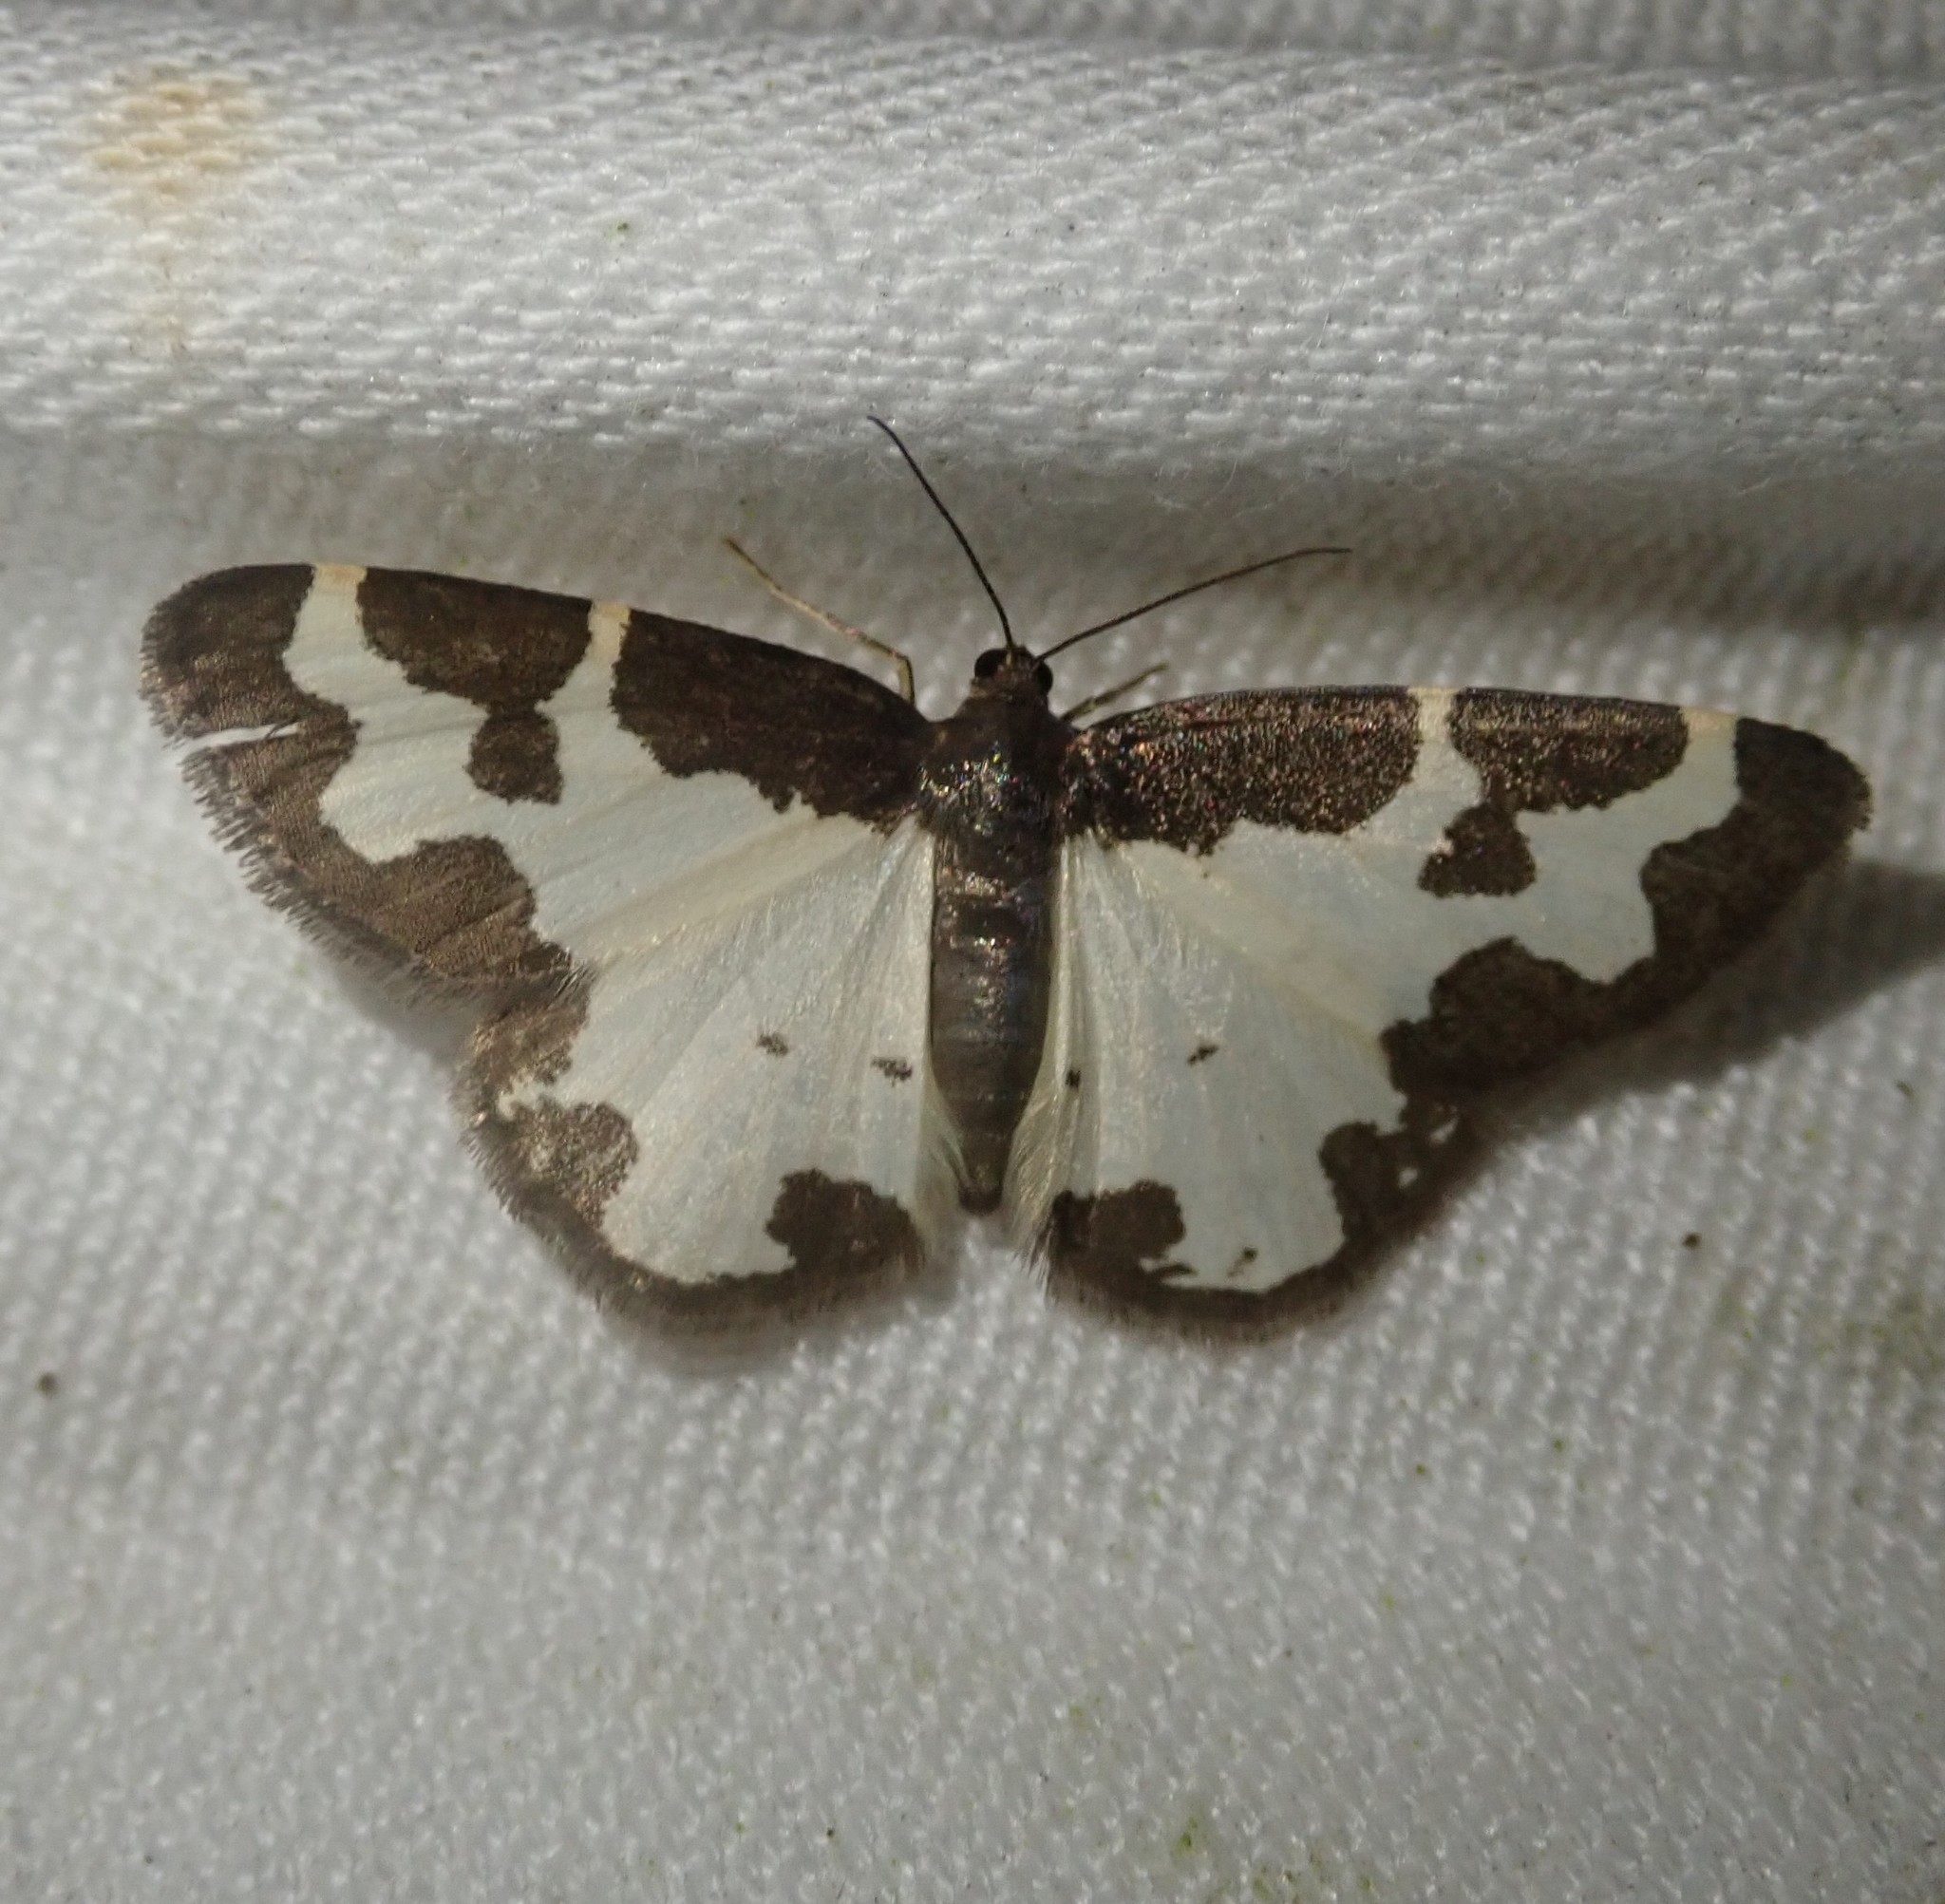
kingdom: Animalia
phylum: Arthropoda
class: Insecta
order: Lepidoptera
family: Geometridae
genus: Lomaspilis
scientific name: Lomaspilis marginata
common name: Clouded border
